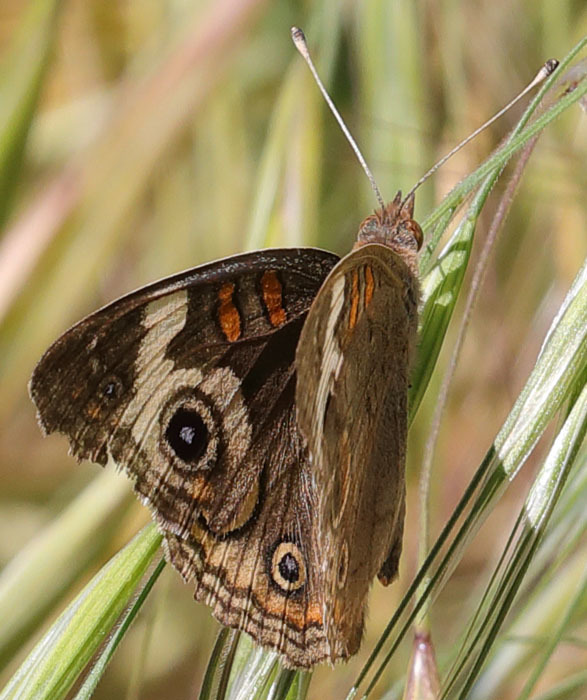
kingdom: Animalia
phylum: Arthropoda
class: Insecta
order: Lepidoptera
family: Nymphalidae
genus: Junonia
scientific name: Junonia grisea
